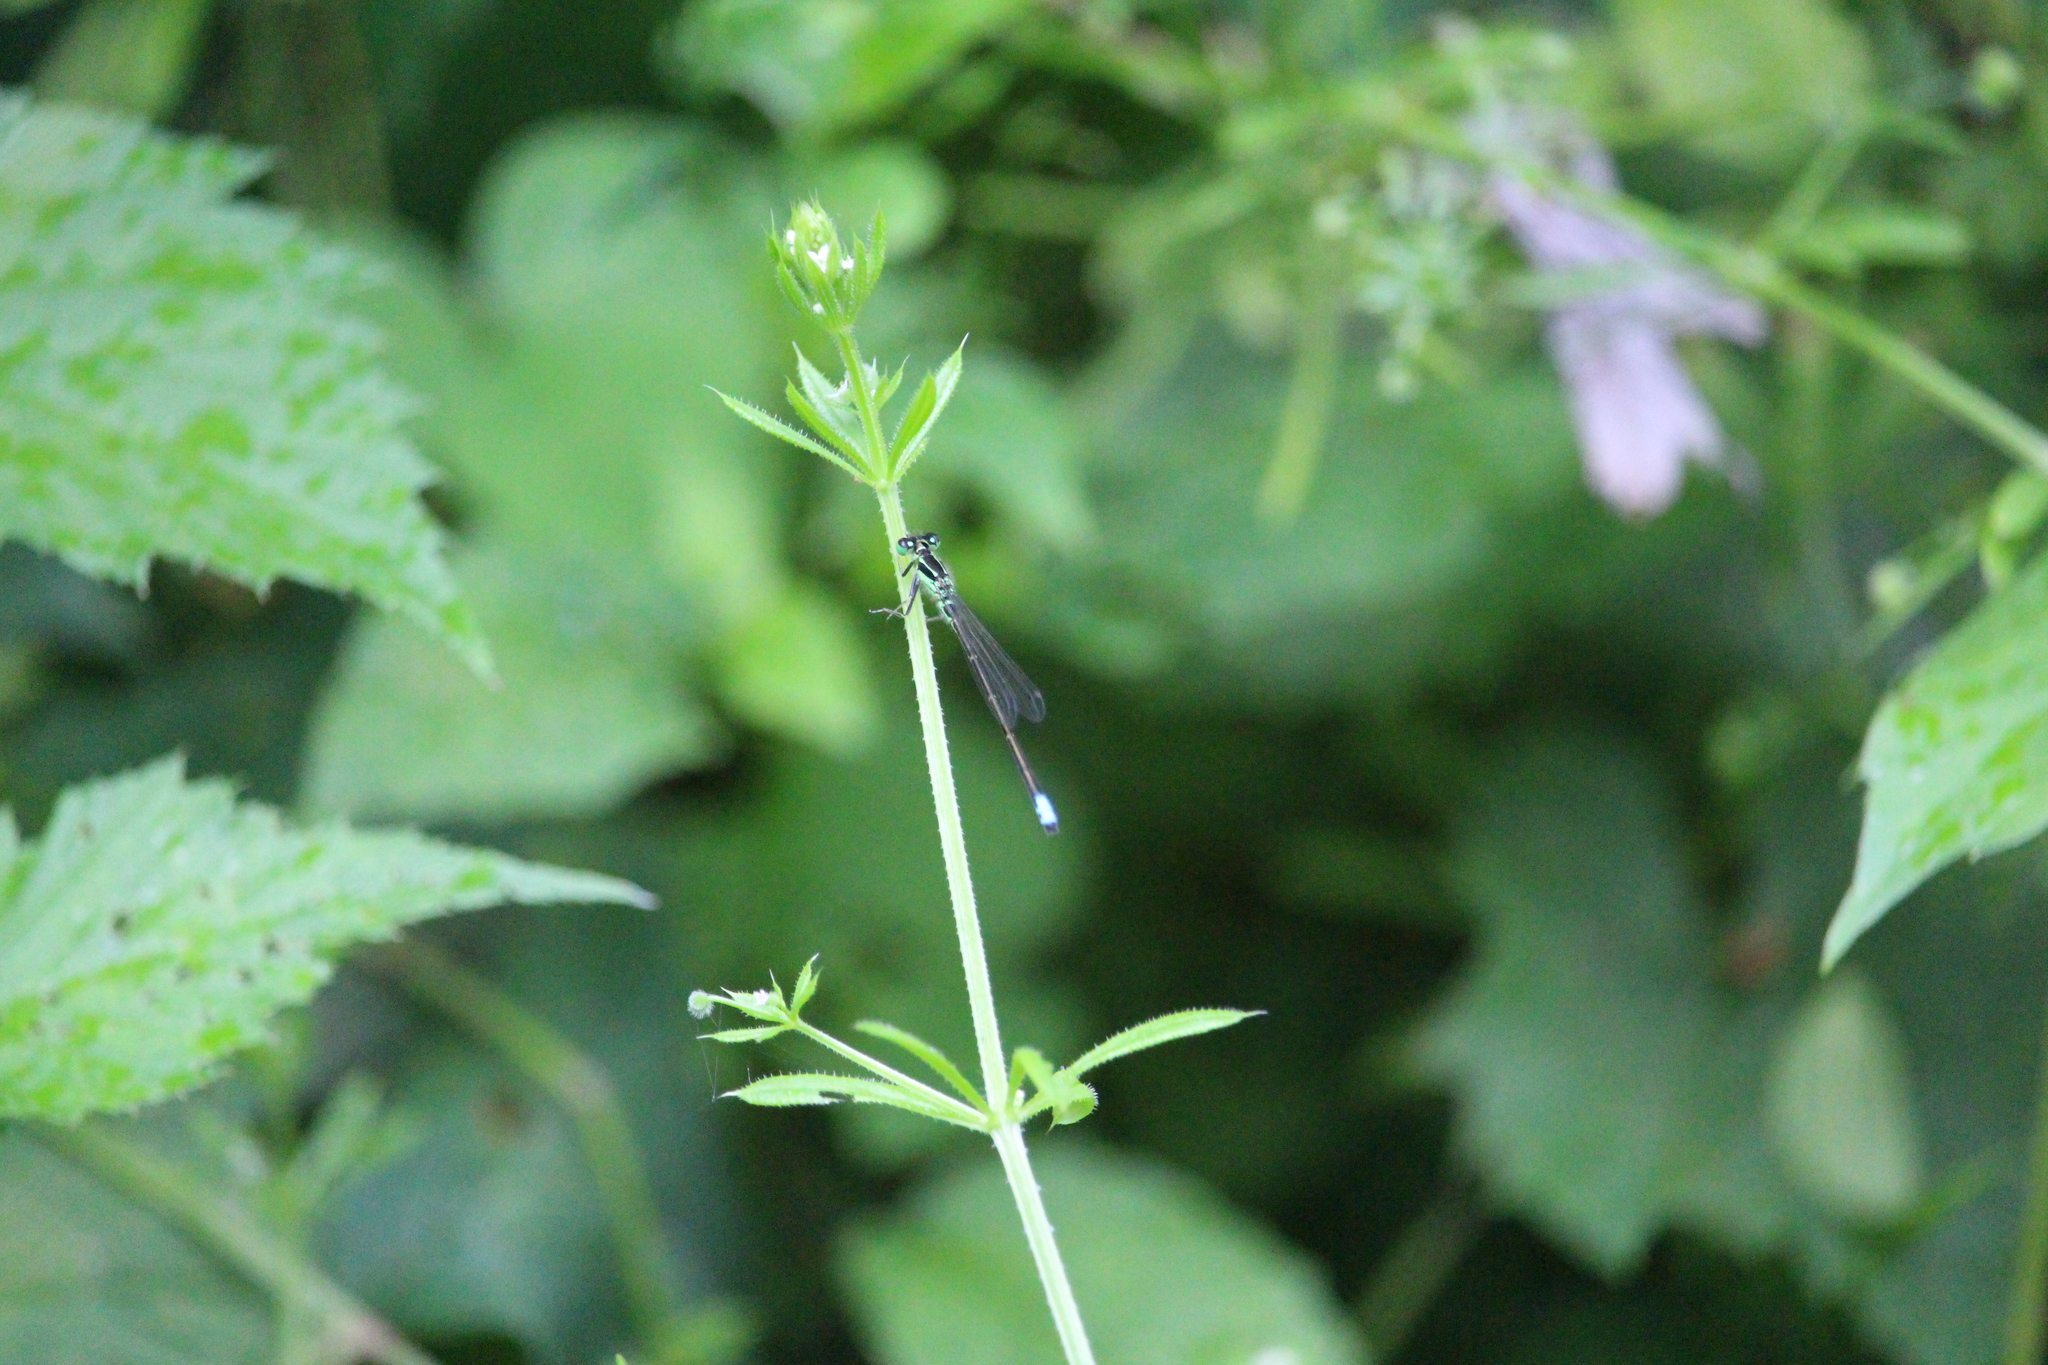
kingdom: Animalia
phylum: Arthropoda
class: Insecta
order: Odonata
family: Coenagrionidae
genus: Ischnura
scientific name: Ischnura verticalis
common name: Eastern forktail
